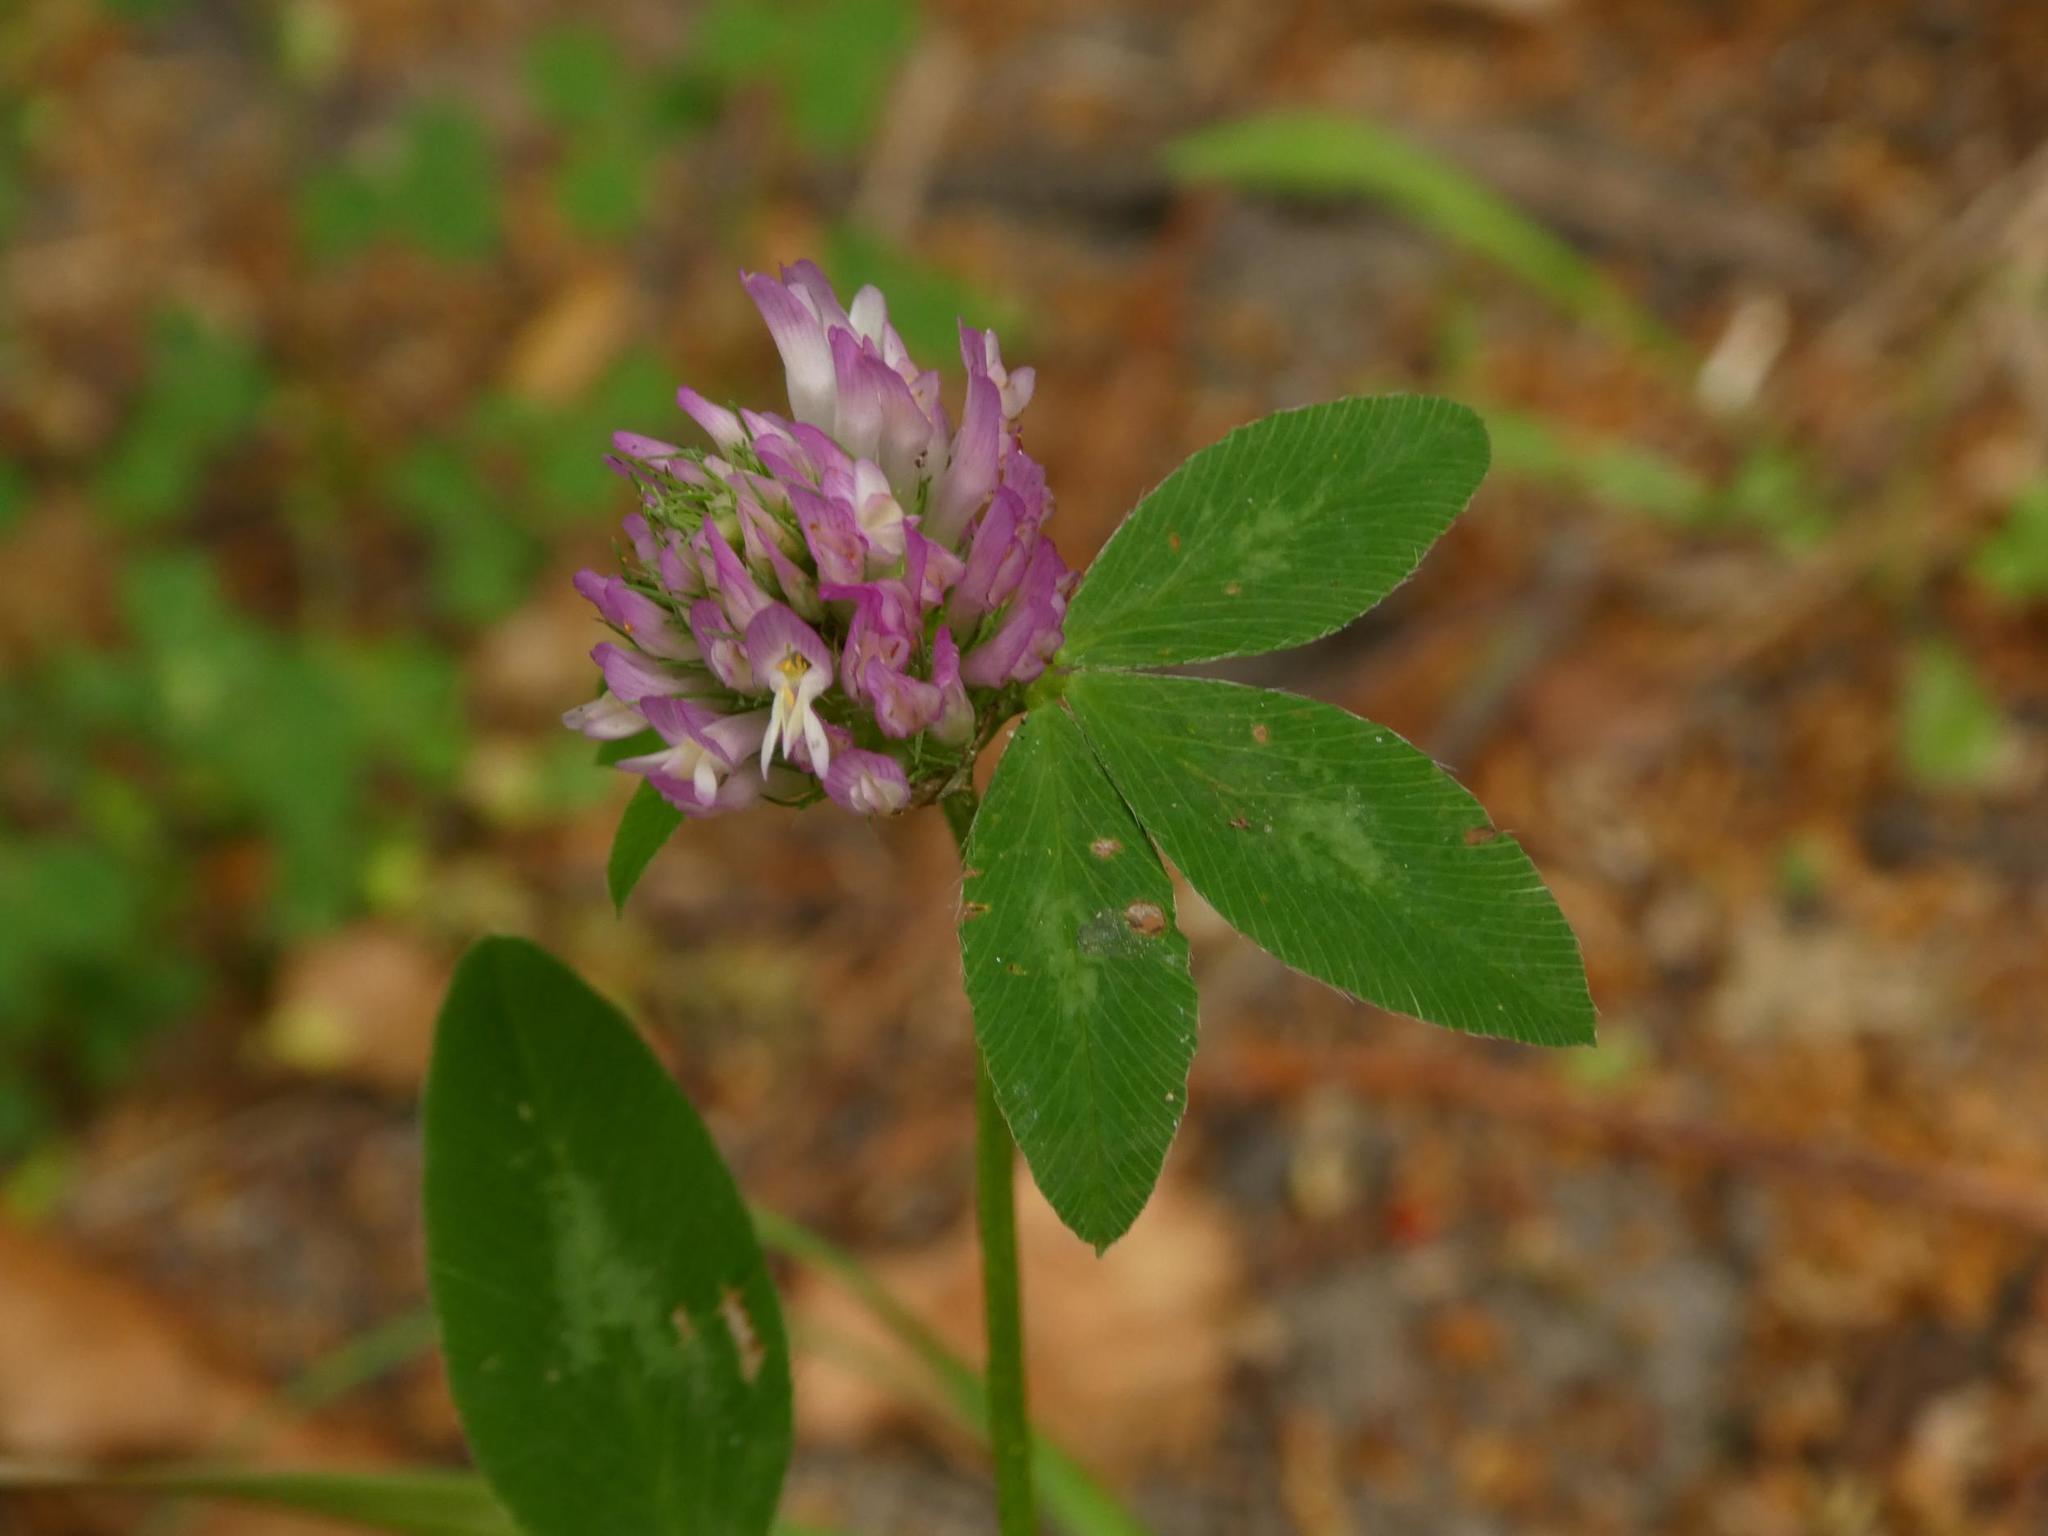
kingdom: Plantae
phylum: Tracheophyta
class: Magnoliopsida
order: Fabales
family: Fabaceae
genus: Trifolium
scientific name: Trifolium pratense
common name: Red clover
